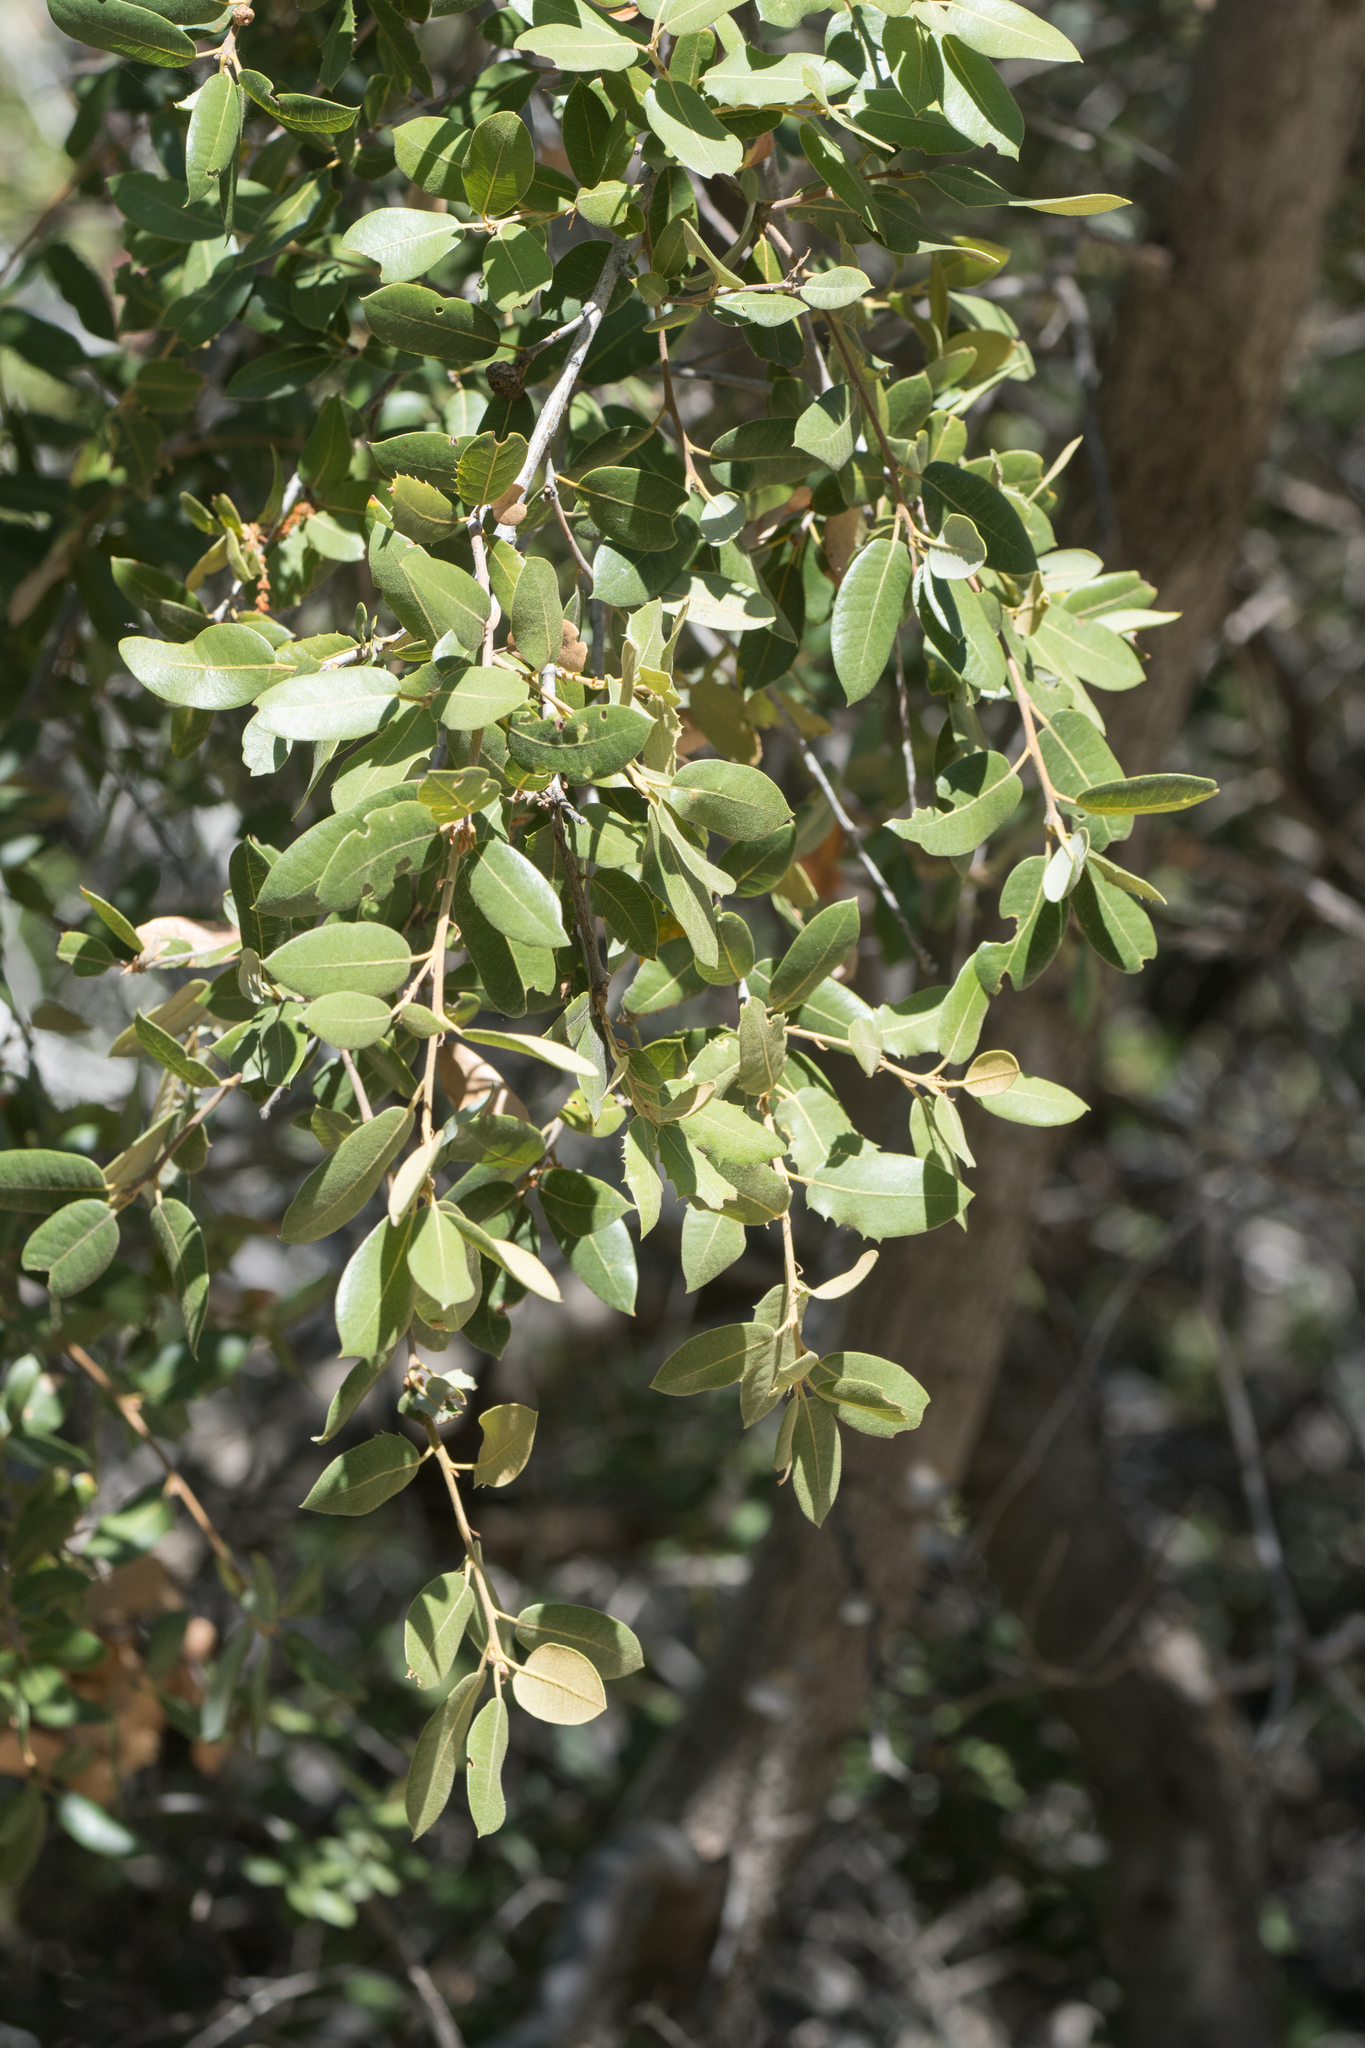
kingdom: Plantae
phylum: Tracheophyta
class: Magnoliopsida
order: Fagales
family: Fagaceae
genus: Quercus
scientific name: Quercus chrysolepis
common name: Canyon live oak
